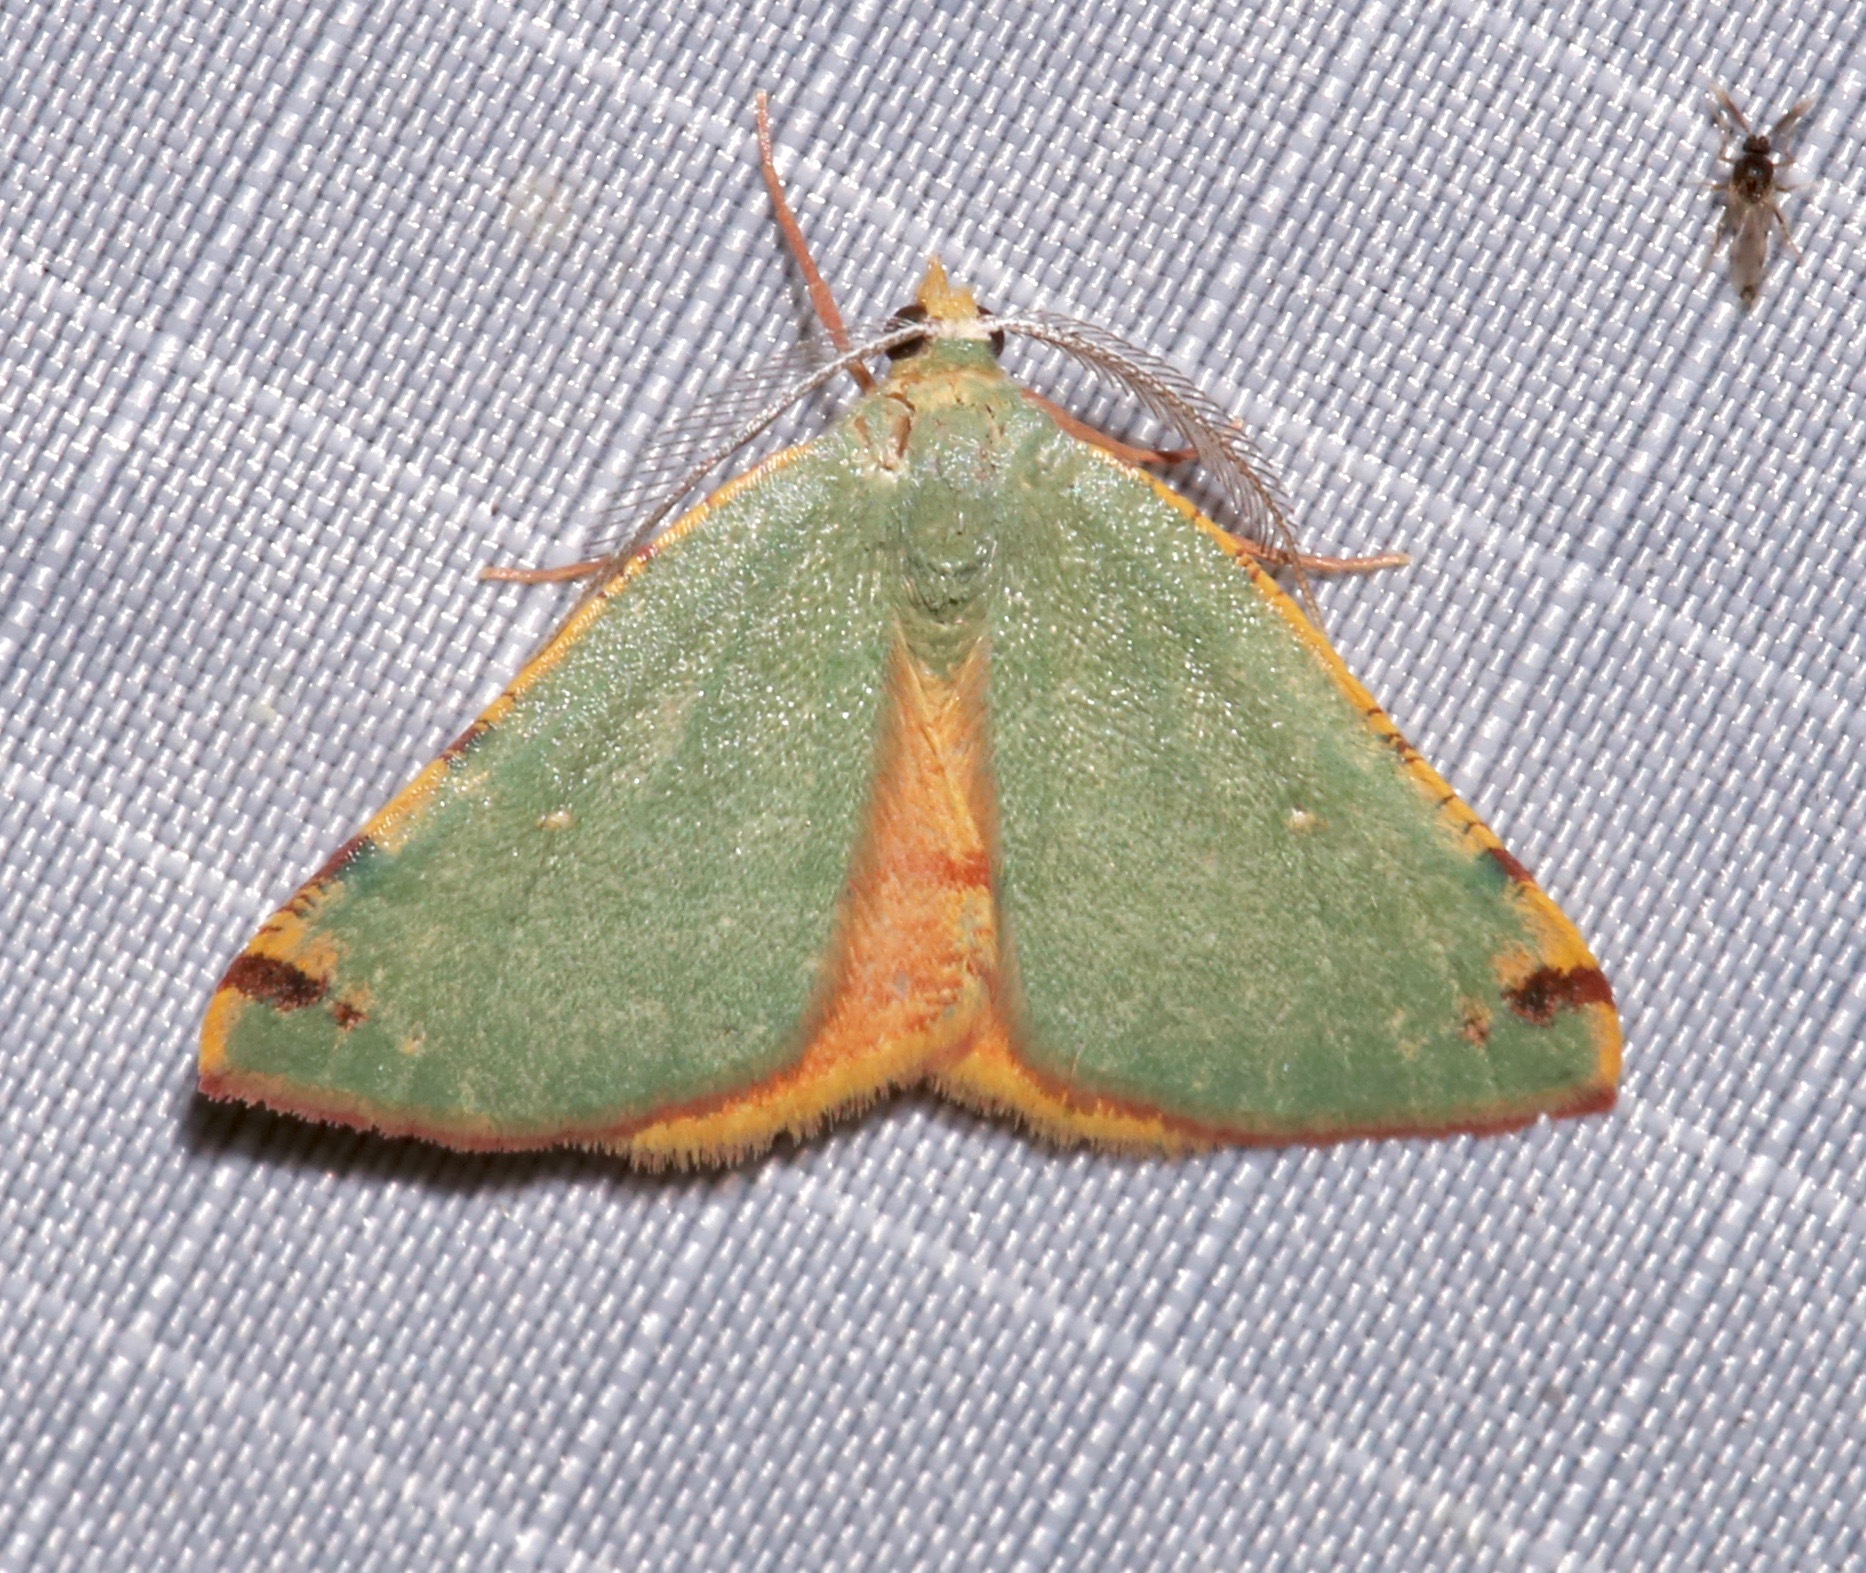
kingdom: Animalia
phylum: Arthropoda
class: Insecta
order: Lepidoptera
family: Geometridae
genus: Chloraspilates
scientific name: Chloraspilates bicoloraria
